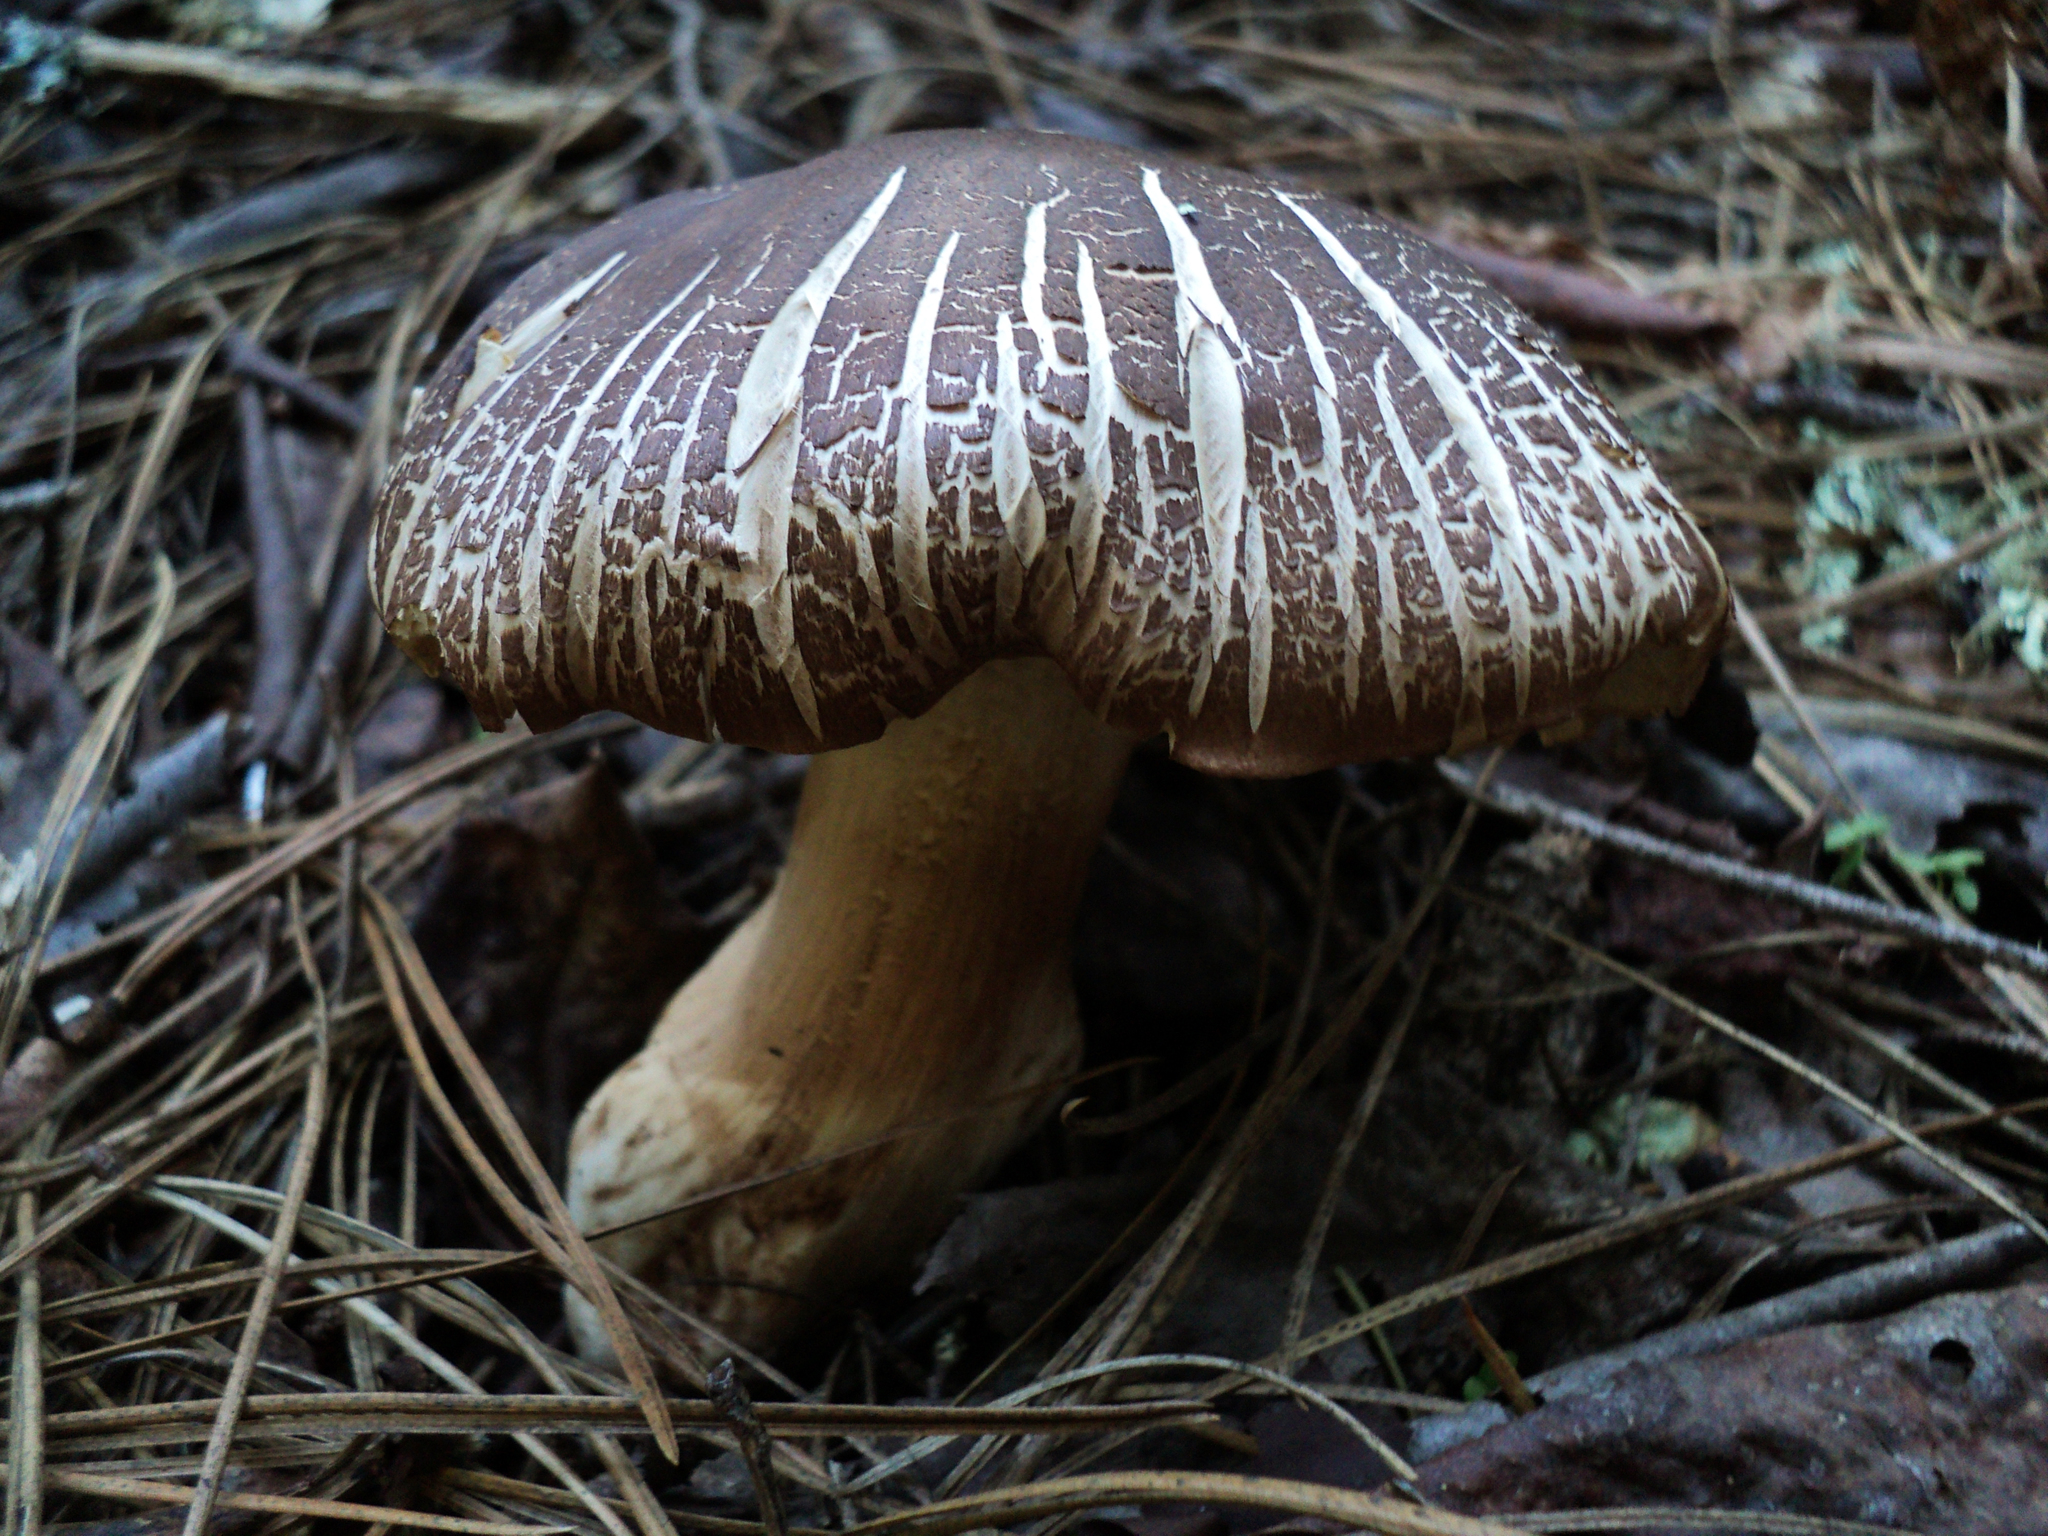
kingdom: Fungi
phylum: Basidiomycota
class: Agaricomycetes
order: Agaricales
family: Tricholomataceae
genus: Tricholoma
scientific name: Tricholoma imbricatum
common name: Matt knight
